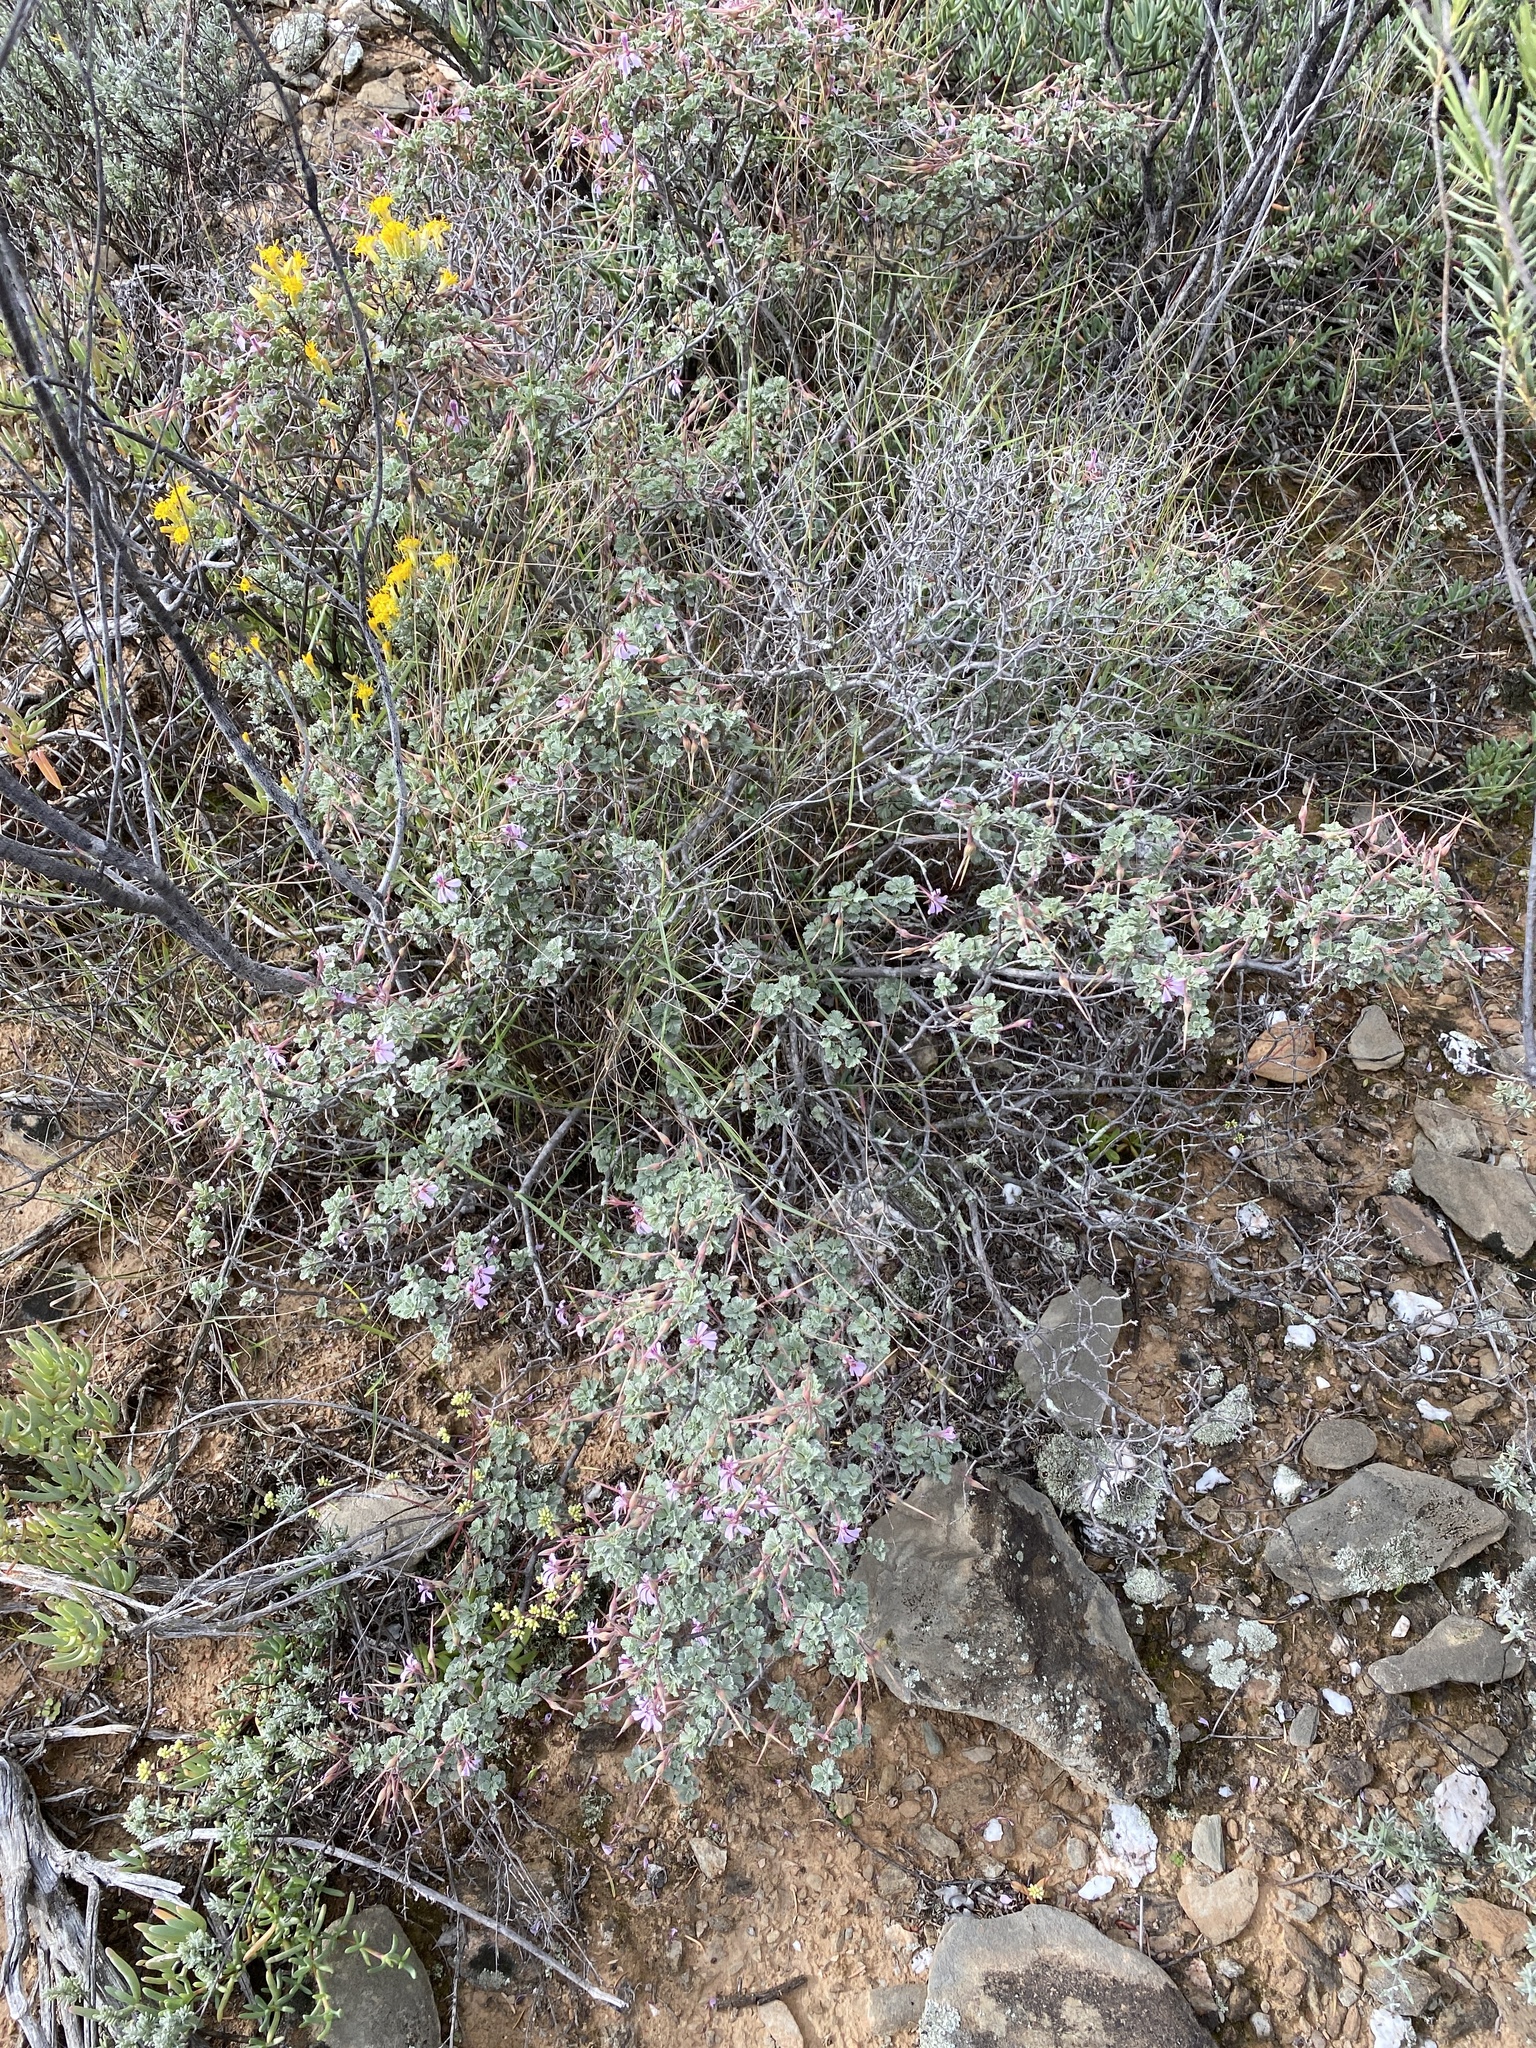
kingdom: Plantae
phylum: Tracheophyta
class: Magnoliopsida
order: Geraniales
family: Geraniaceae
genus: Pelargonium
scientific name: Pelargonium exstipulatum
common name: Soft-leaf trifid pelargonium
